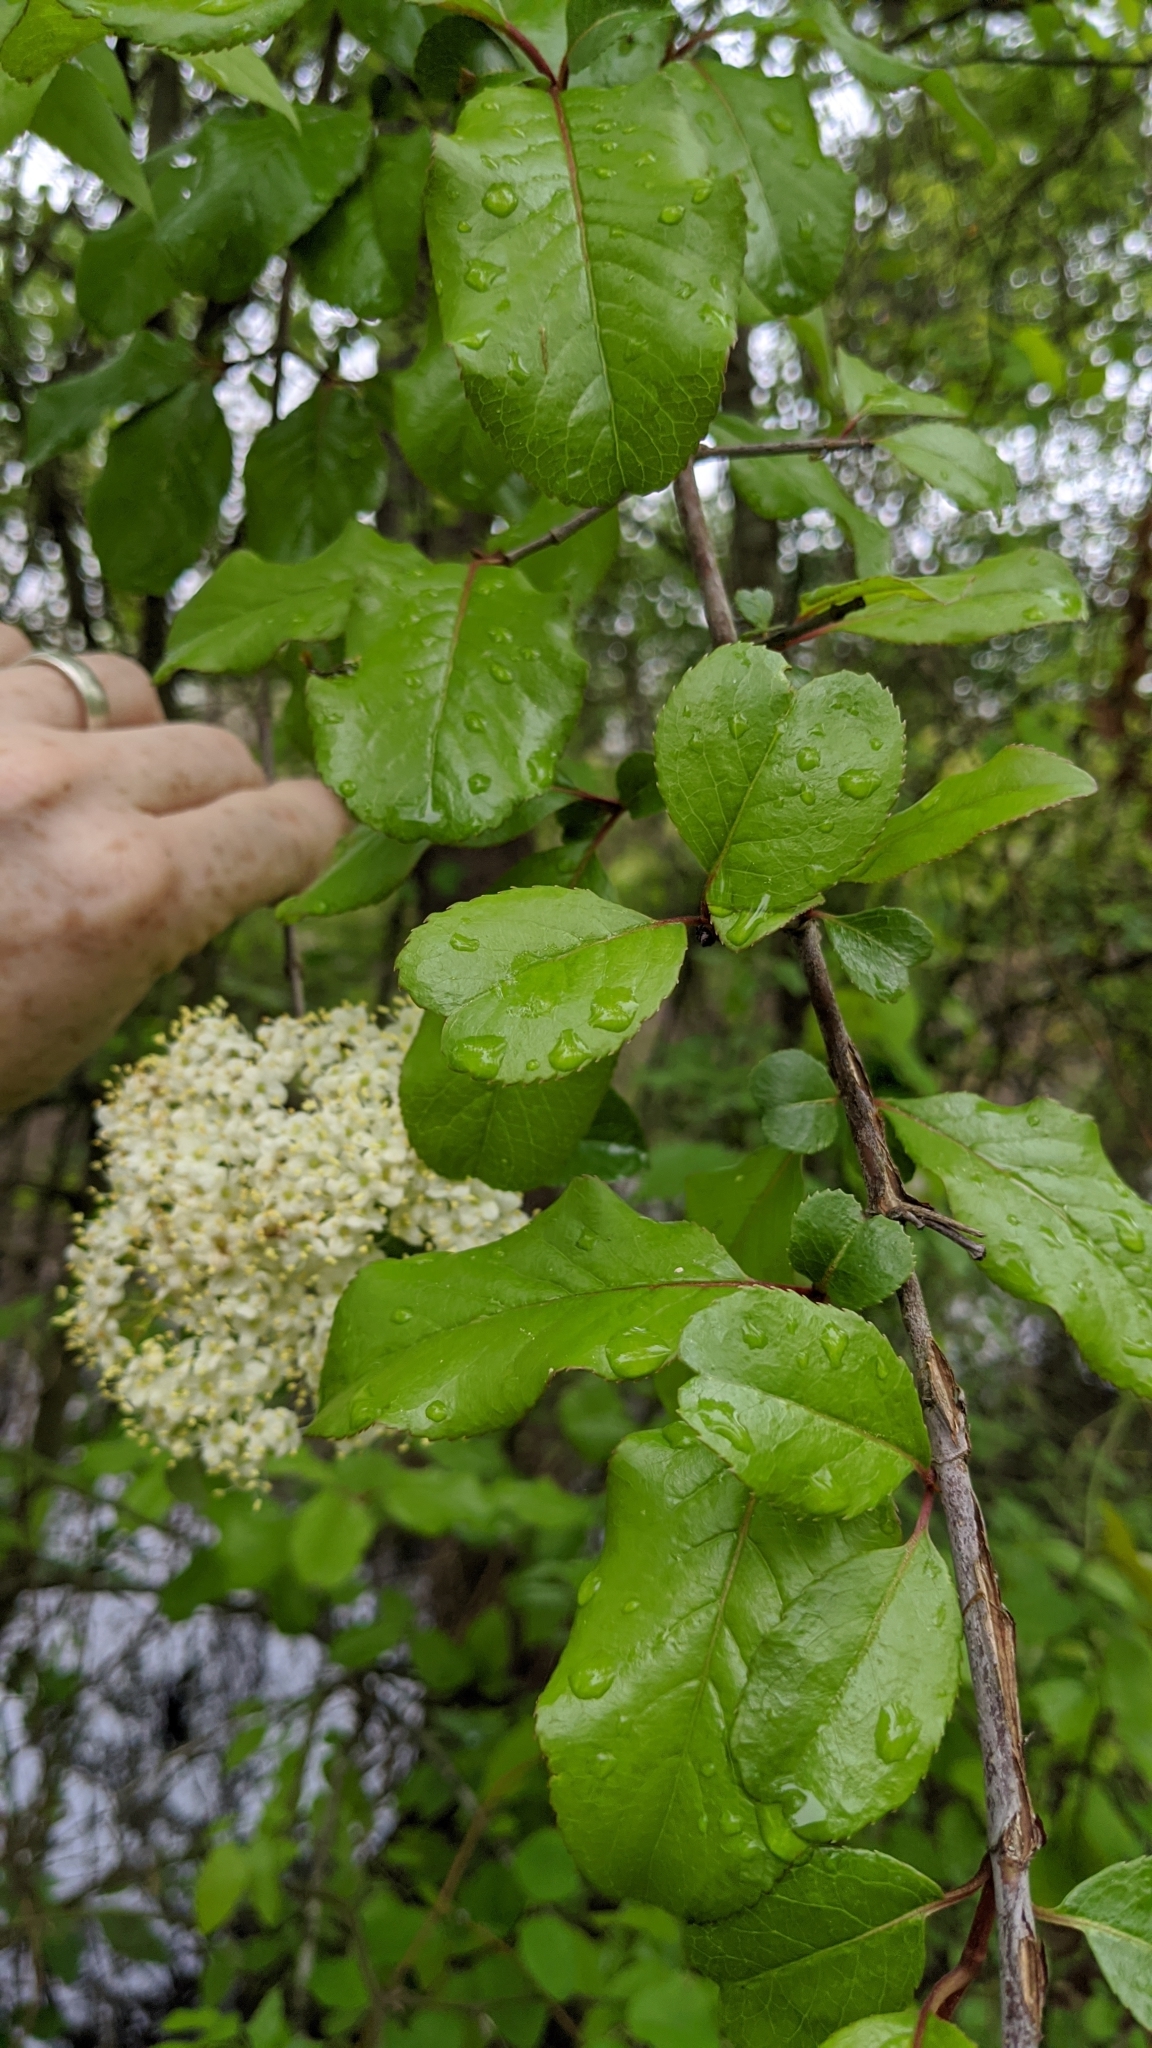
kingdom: Plantae
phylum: Tracheophyta
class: Magnoliopsida
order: Dipsacales
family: Viburnaceae
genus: Viburnum
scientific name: Viburnum rufidulum
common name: Blue haw
